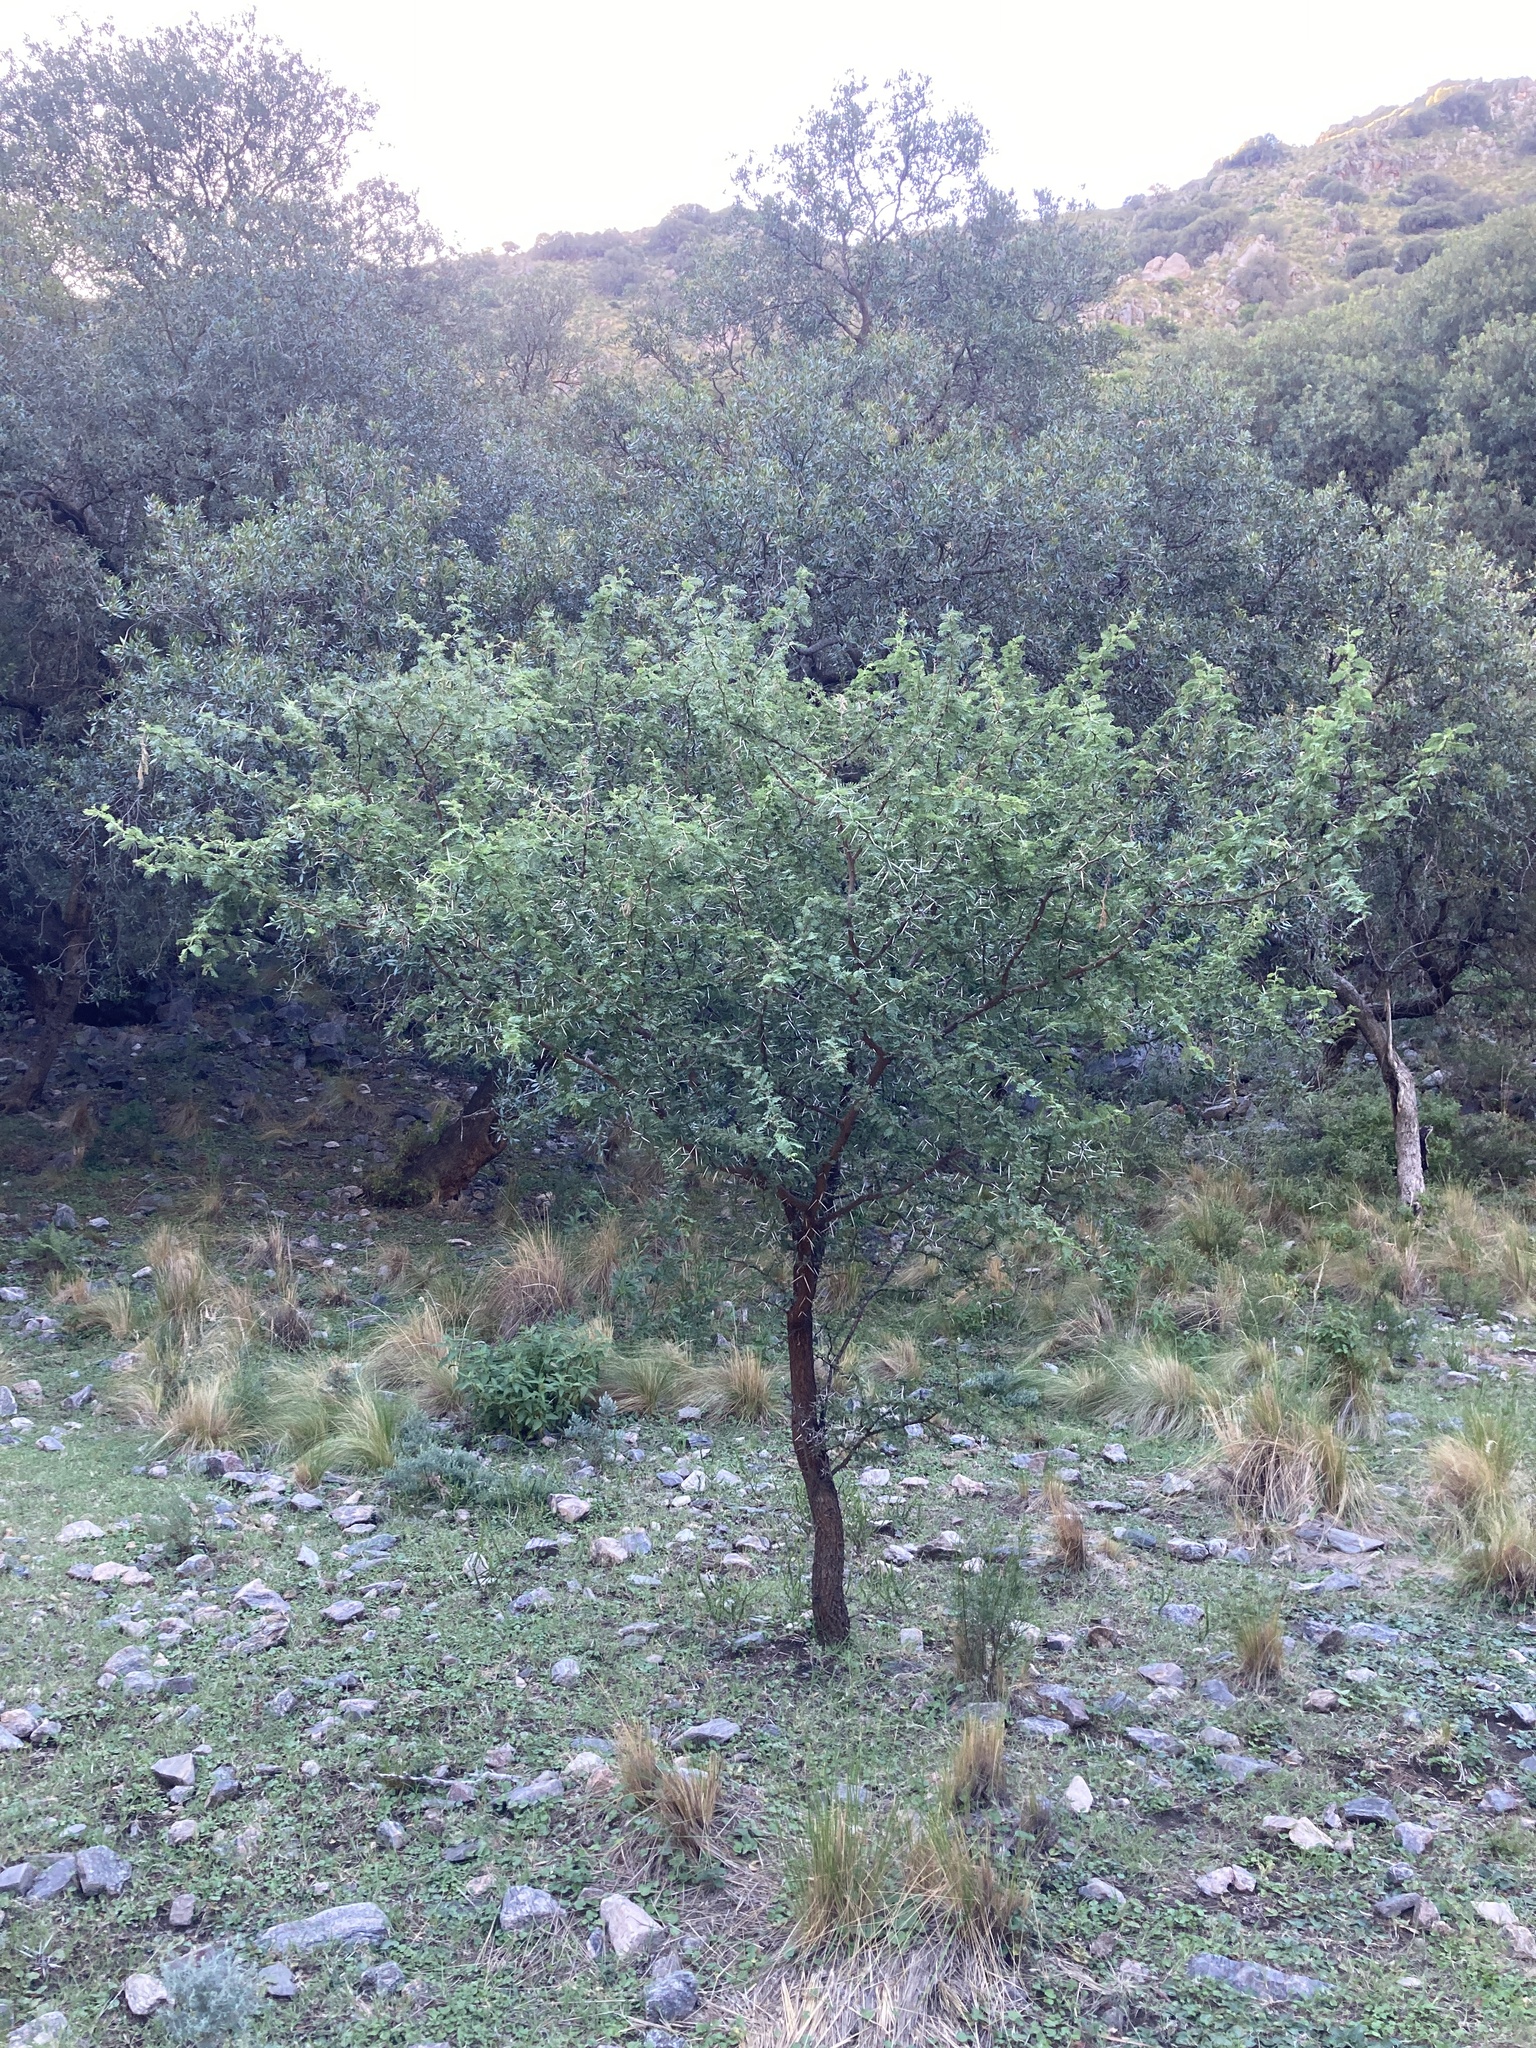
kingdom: Plantae
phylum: Tracheophyta
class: Magnoliopsida
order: Fabales
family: Fabaceae
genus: Vachellia
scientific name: Vachellia caven
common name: Roman cassie
